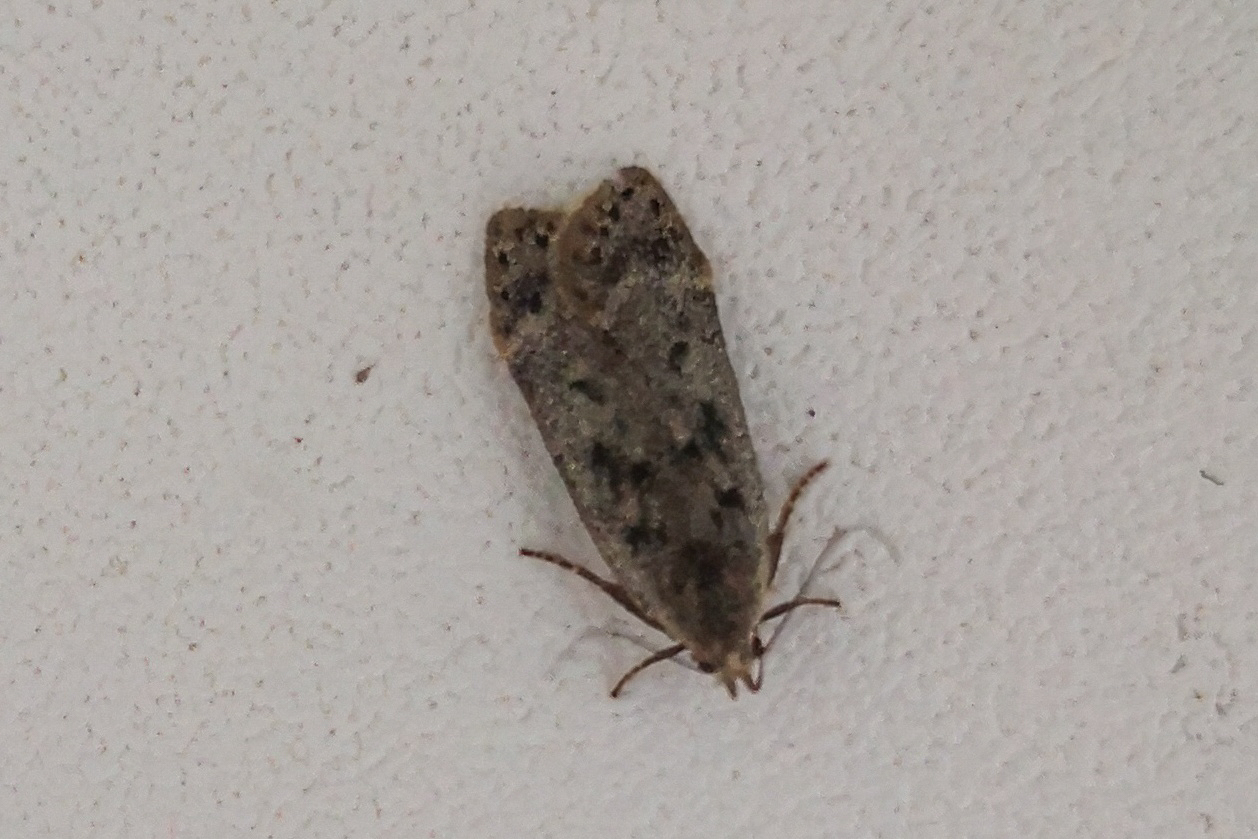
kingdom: Animalia
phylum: Arthropoda
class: Insecta
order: Lepidoptera
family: Gelechiidae
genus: Anacampsis
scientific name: Anacampsis populella
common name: Poplar leafroller
